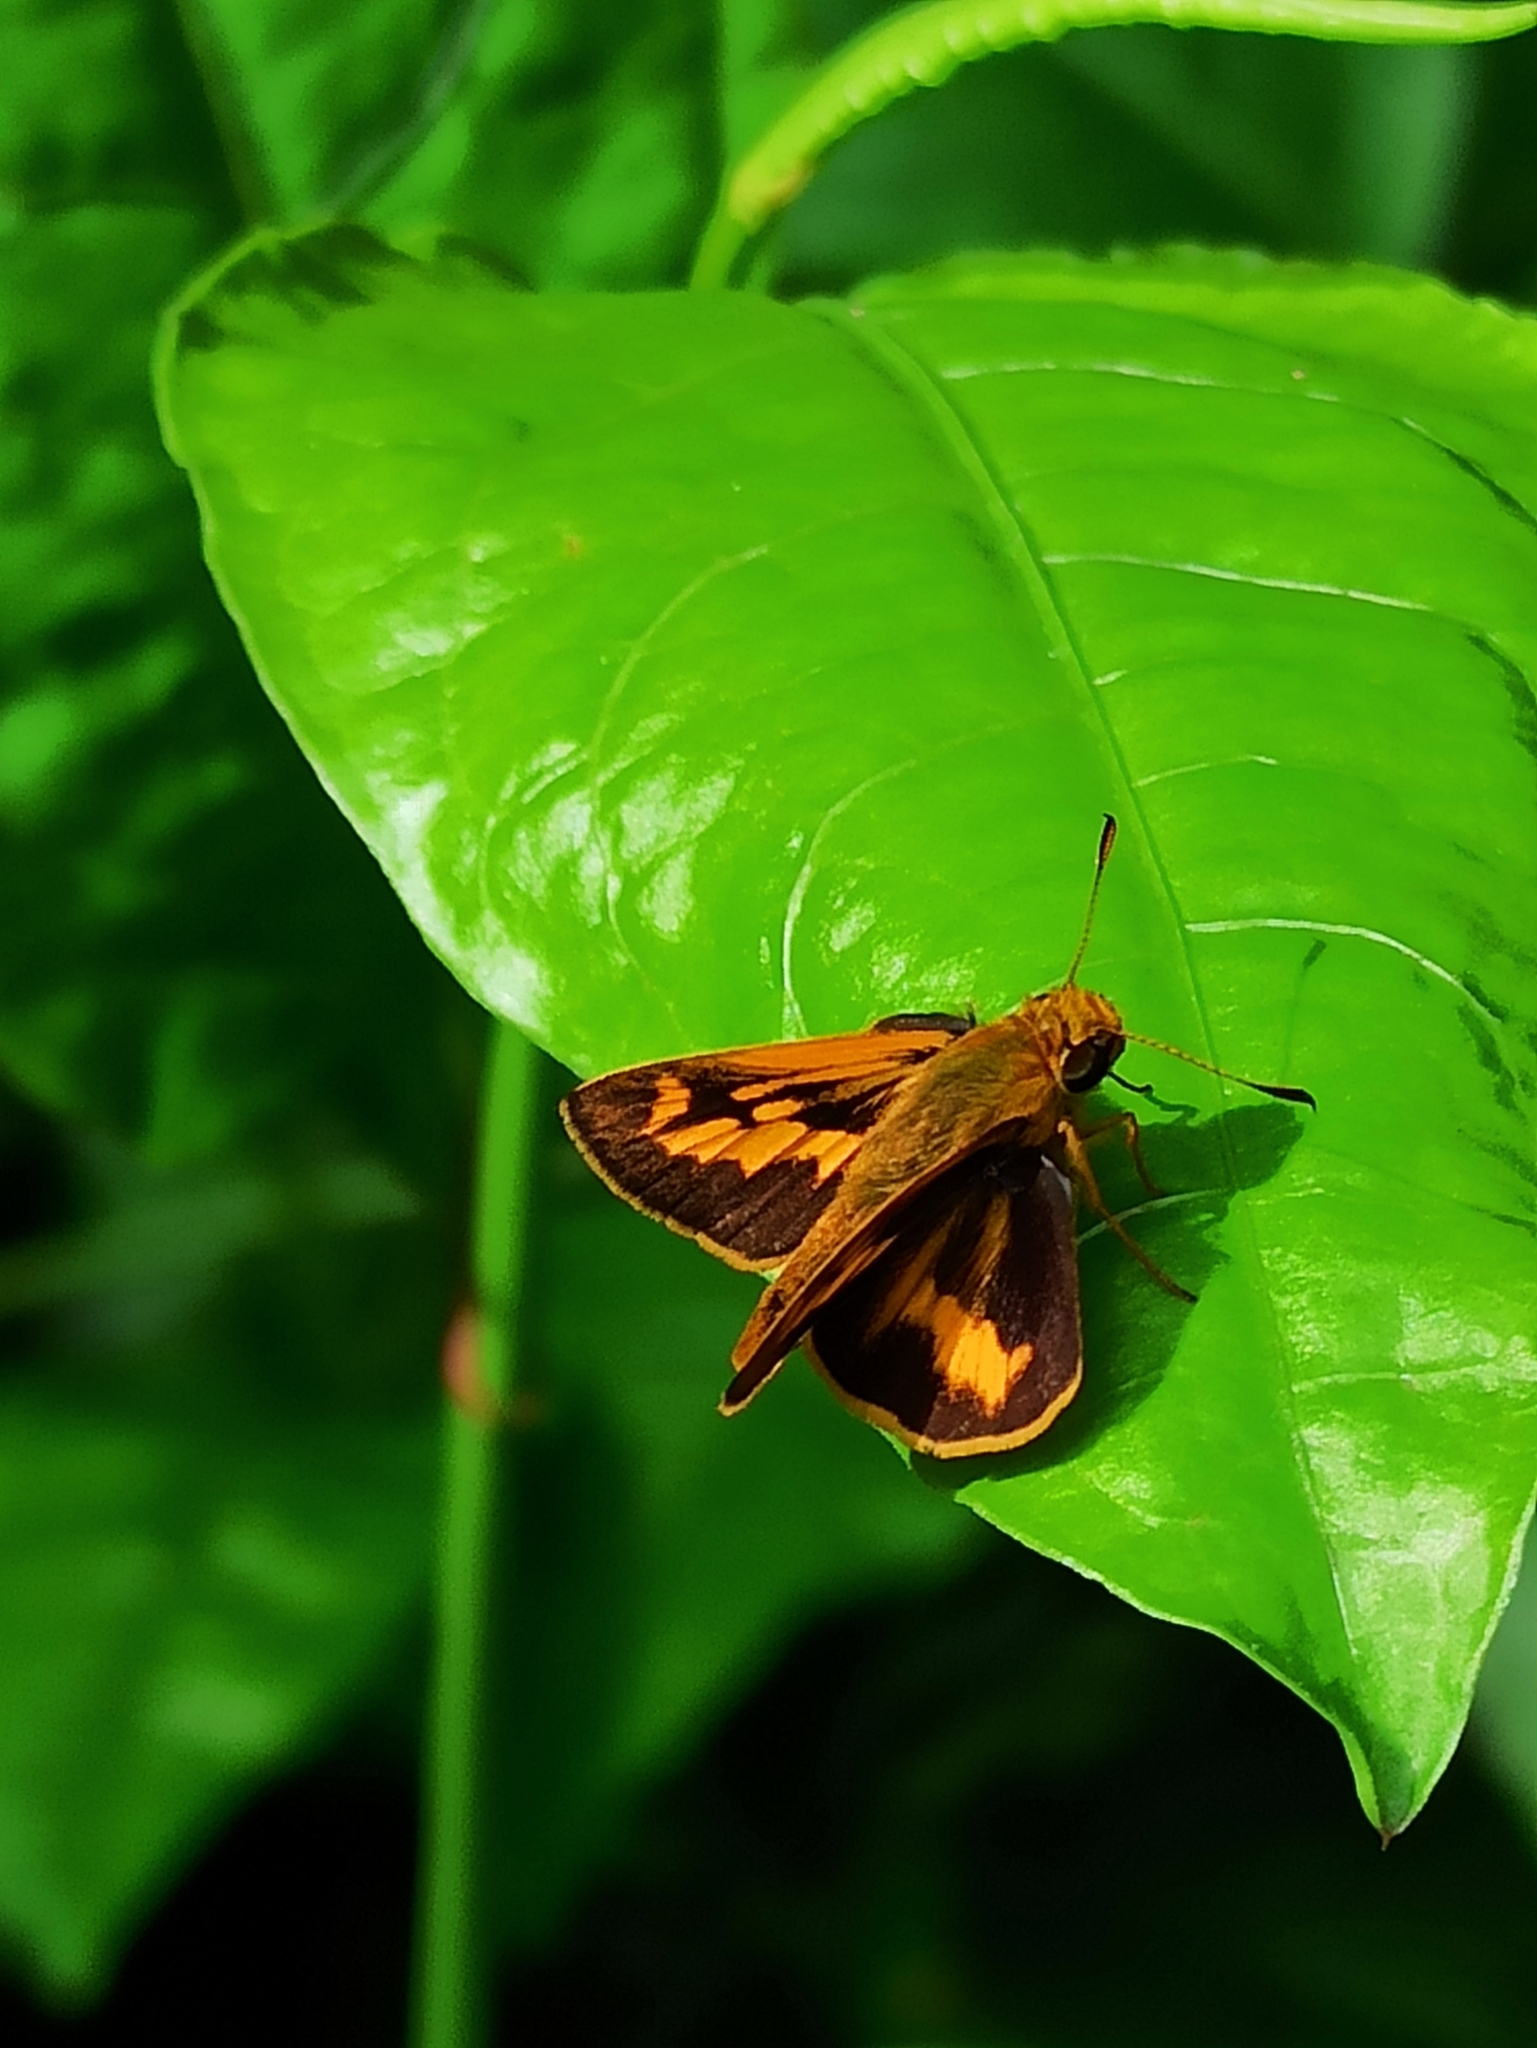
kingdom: Animalia
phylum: Arthropoda
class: Insecta
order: Lepidoptera
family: Hesperiidae
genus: Oriens
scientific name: Oriens goloides
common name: Smaller dartlet
